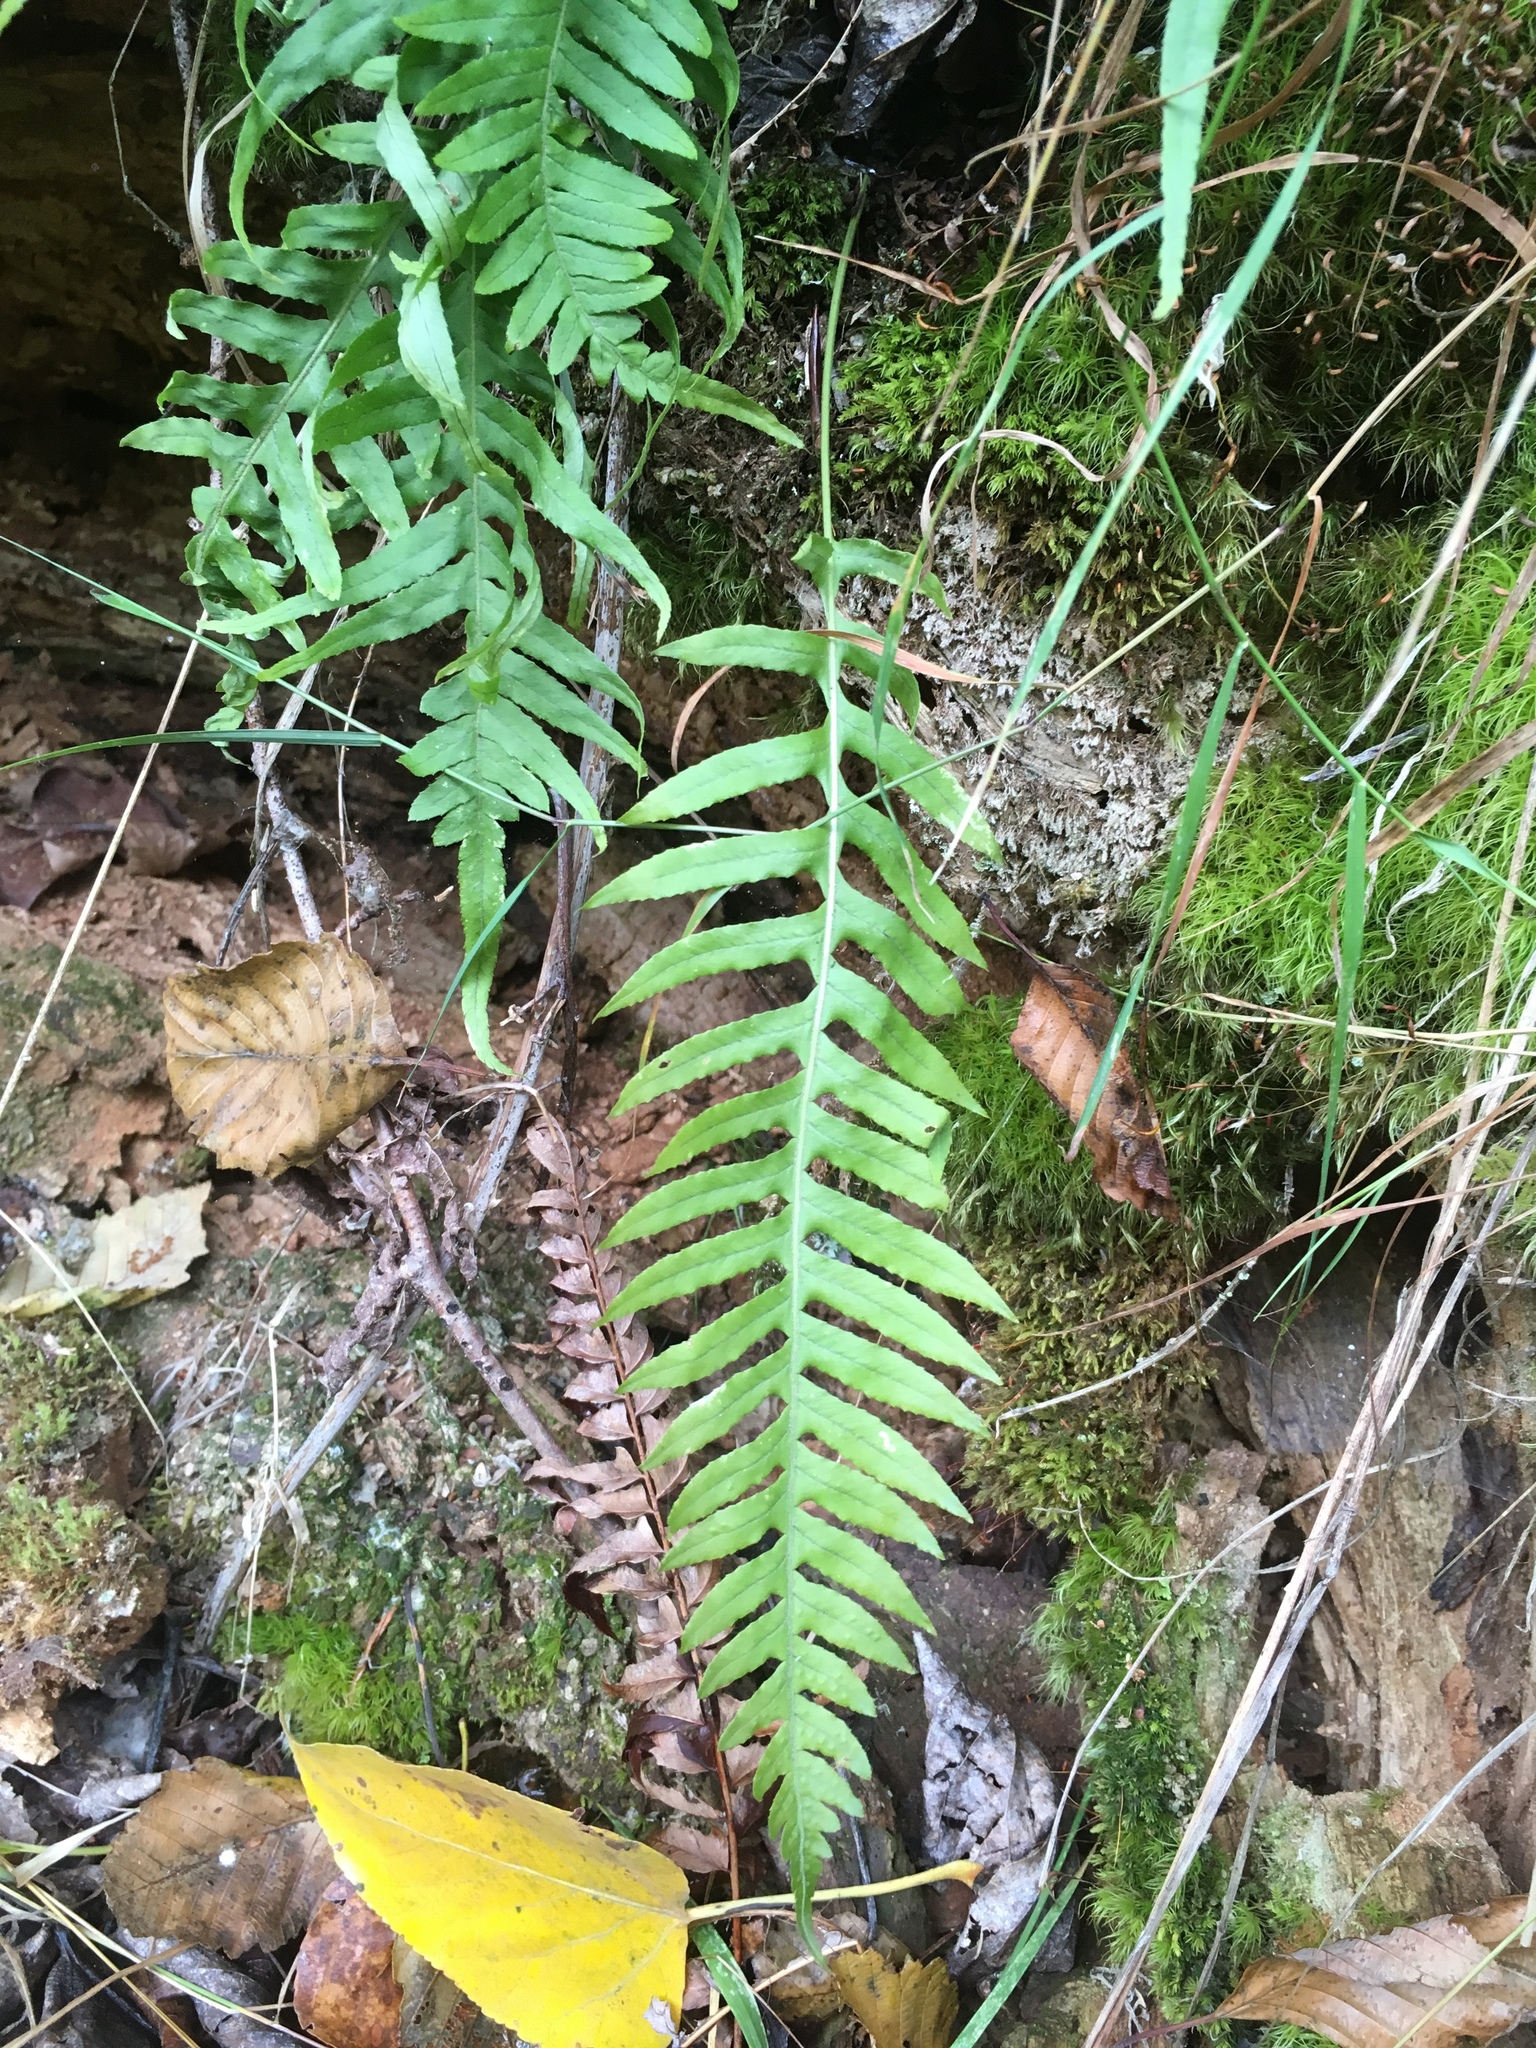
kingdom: Plantae
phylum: Tracheophyta
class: Polypodiopsida
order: Polypodiales
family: Polypodiaceae
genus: Polypodium
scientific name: Polypodium glycyrrhiza
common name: Licorice fern
